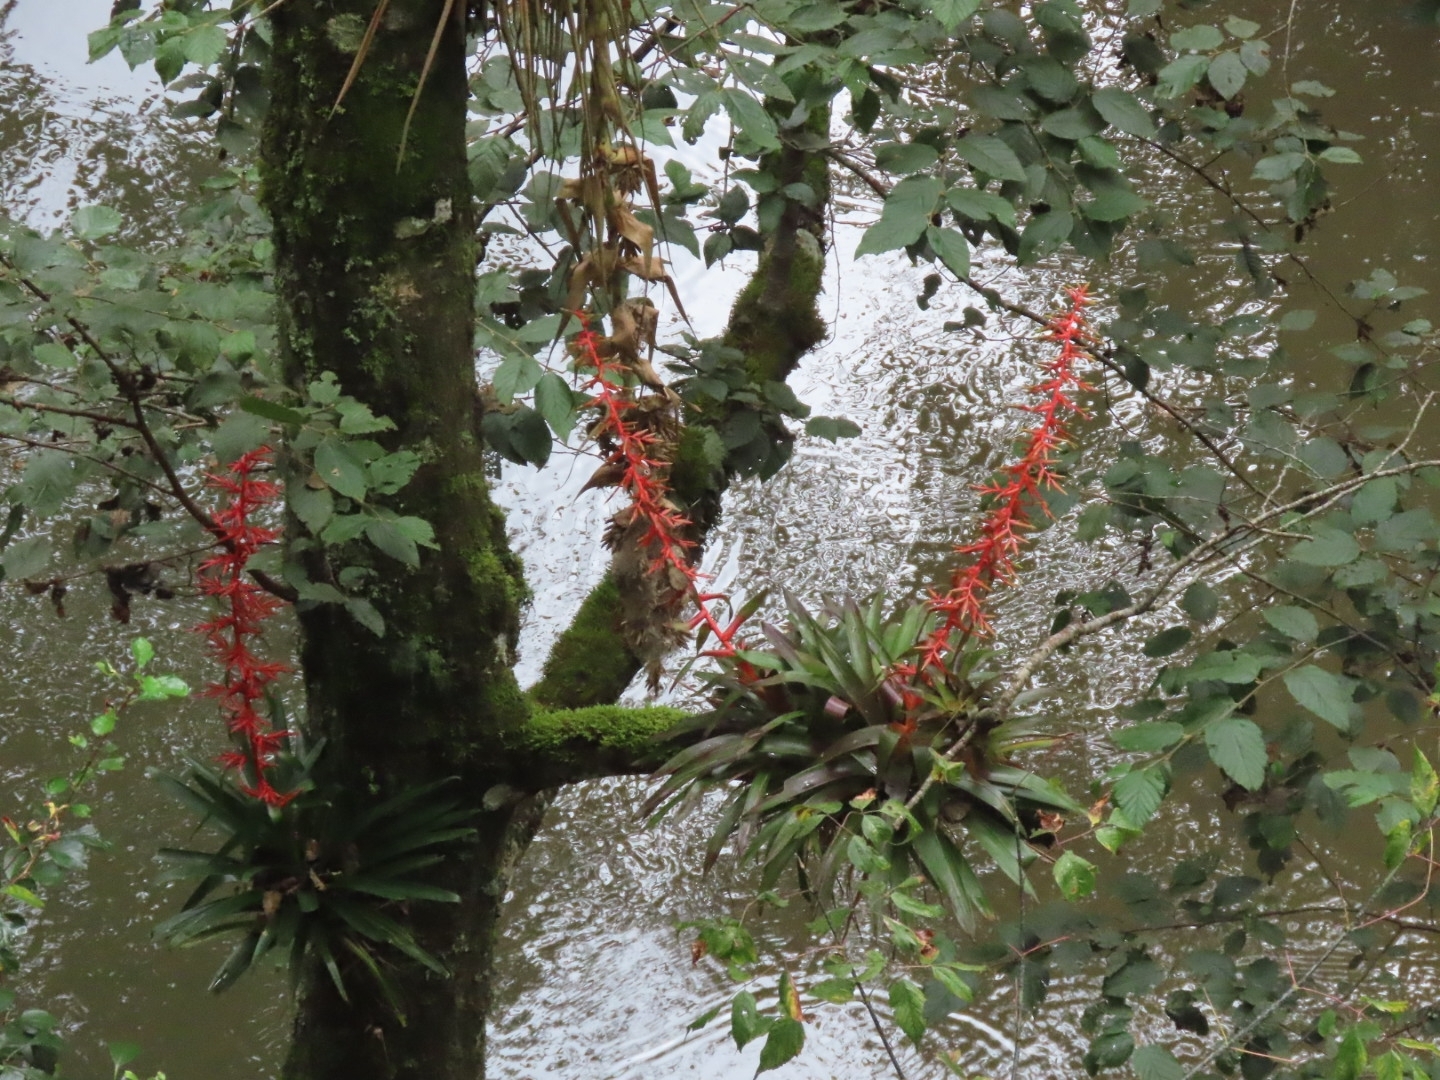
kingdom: Plantae
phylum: Tracheophyta
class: Liliopsida
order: Poales
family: Bromeliaceae
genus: Tillandsia
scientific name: Tillandsia guatemalensis
